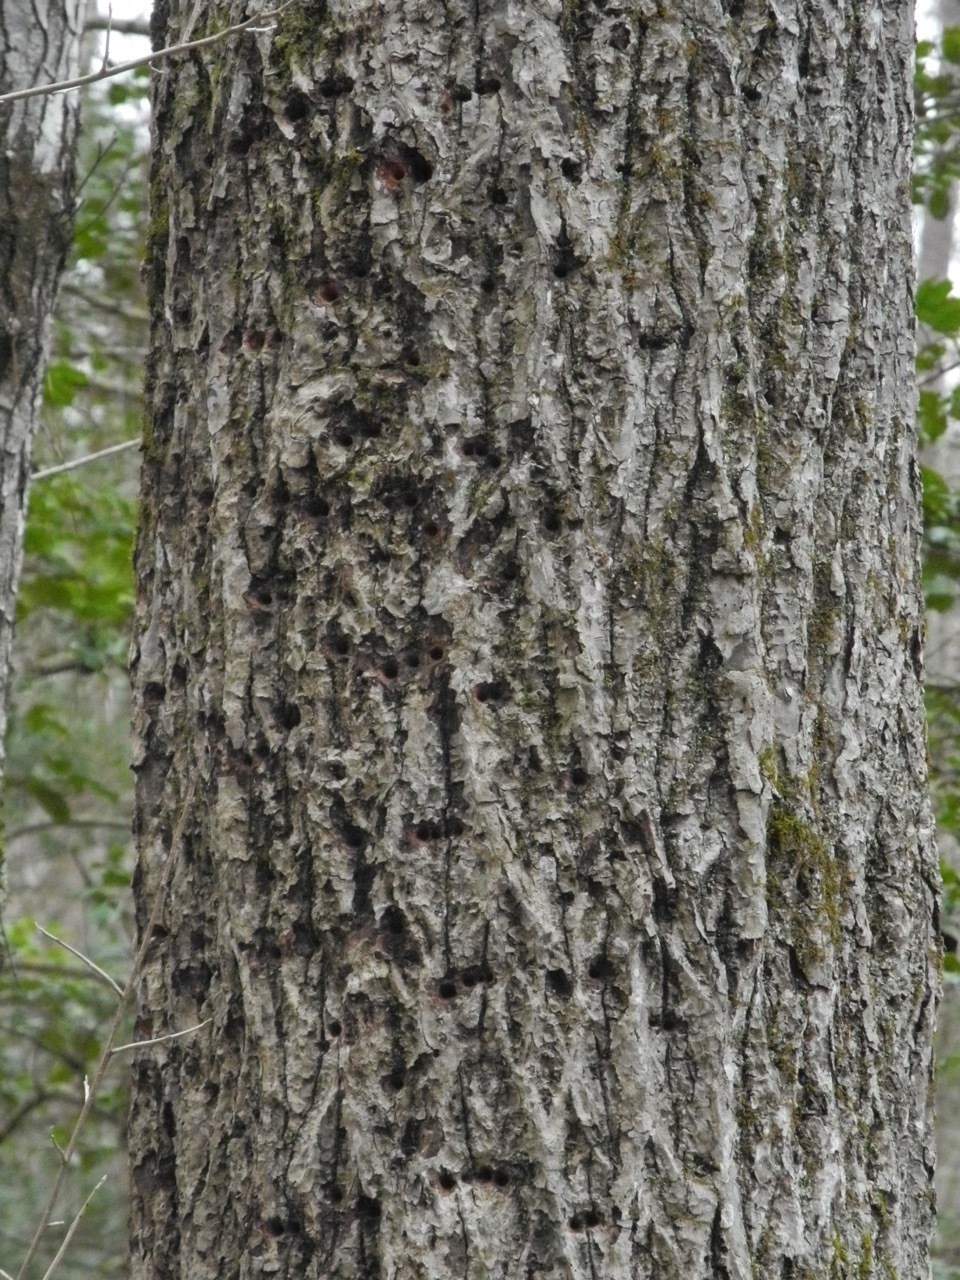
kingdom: Plantae
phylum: Tracheophyta
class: Magnoliopsida
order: Magnoliales
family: Magnoliaceae
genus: Liriodendron
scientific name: Liriodendron tulipifera
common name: Tulip tree
